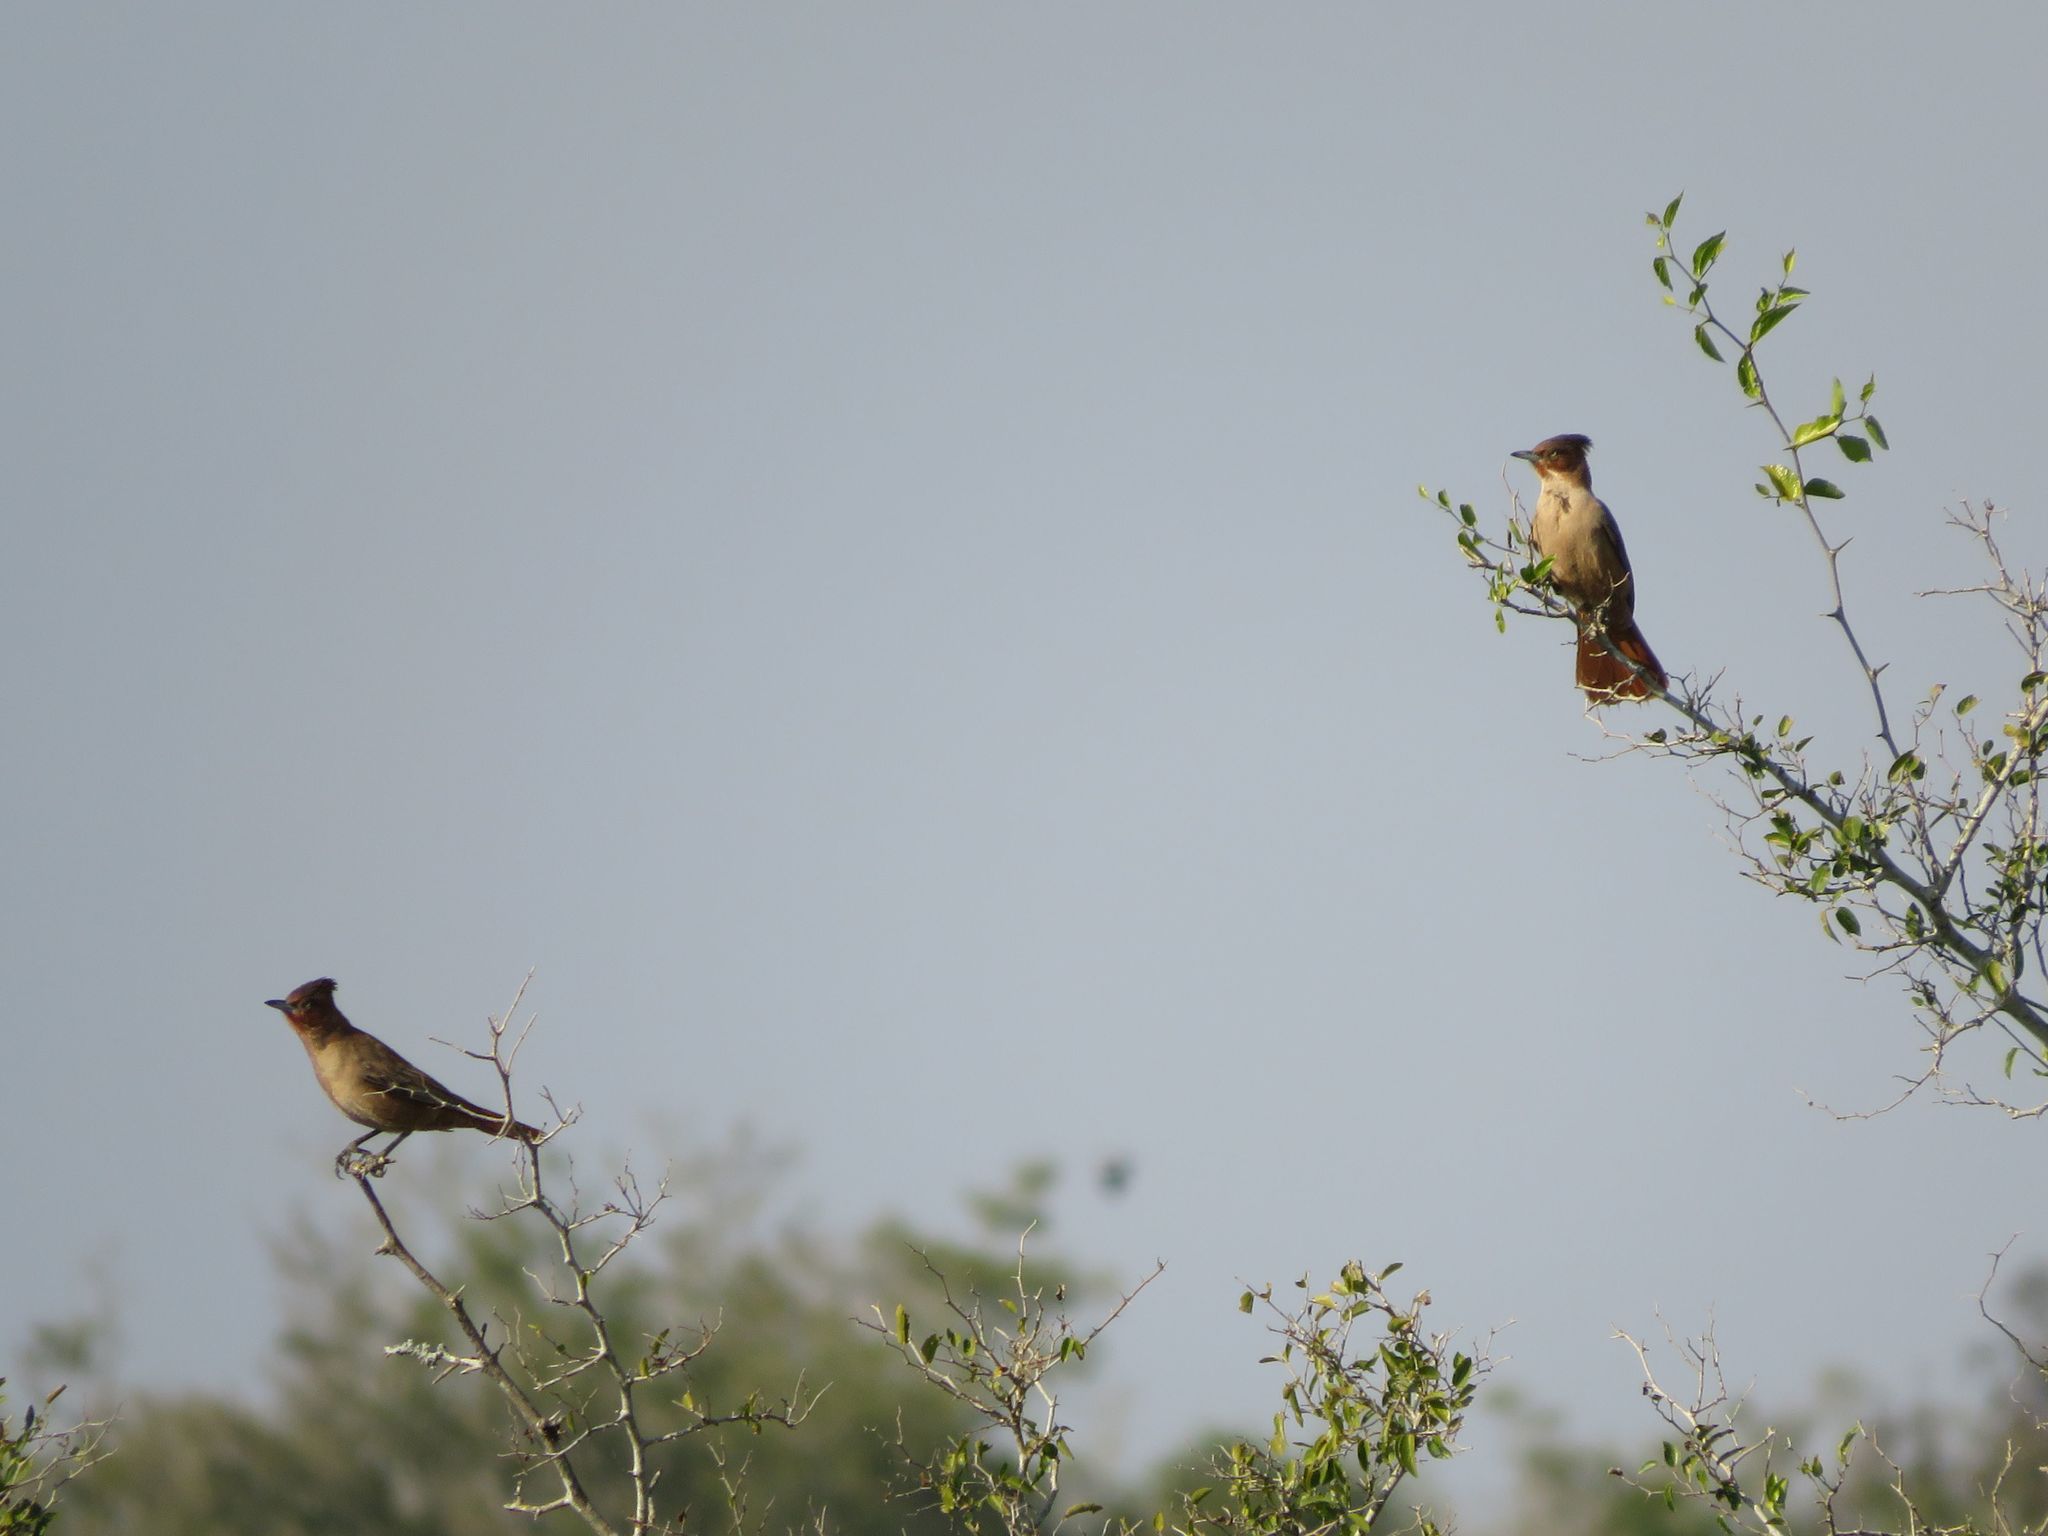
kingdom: Animalia
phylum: Chordata
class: Aves
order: Passeriformes
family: Furnariidae
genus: Pseudoseisura
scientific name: Pseudoseisura lophotes
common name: Brown cacholote
